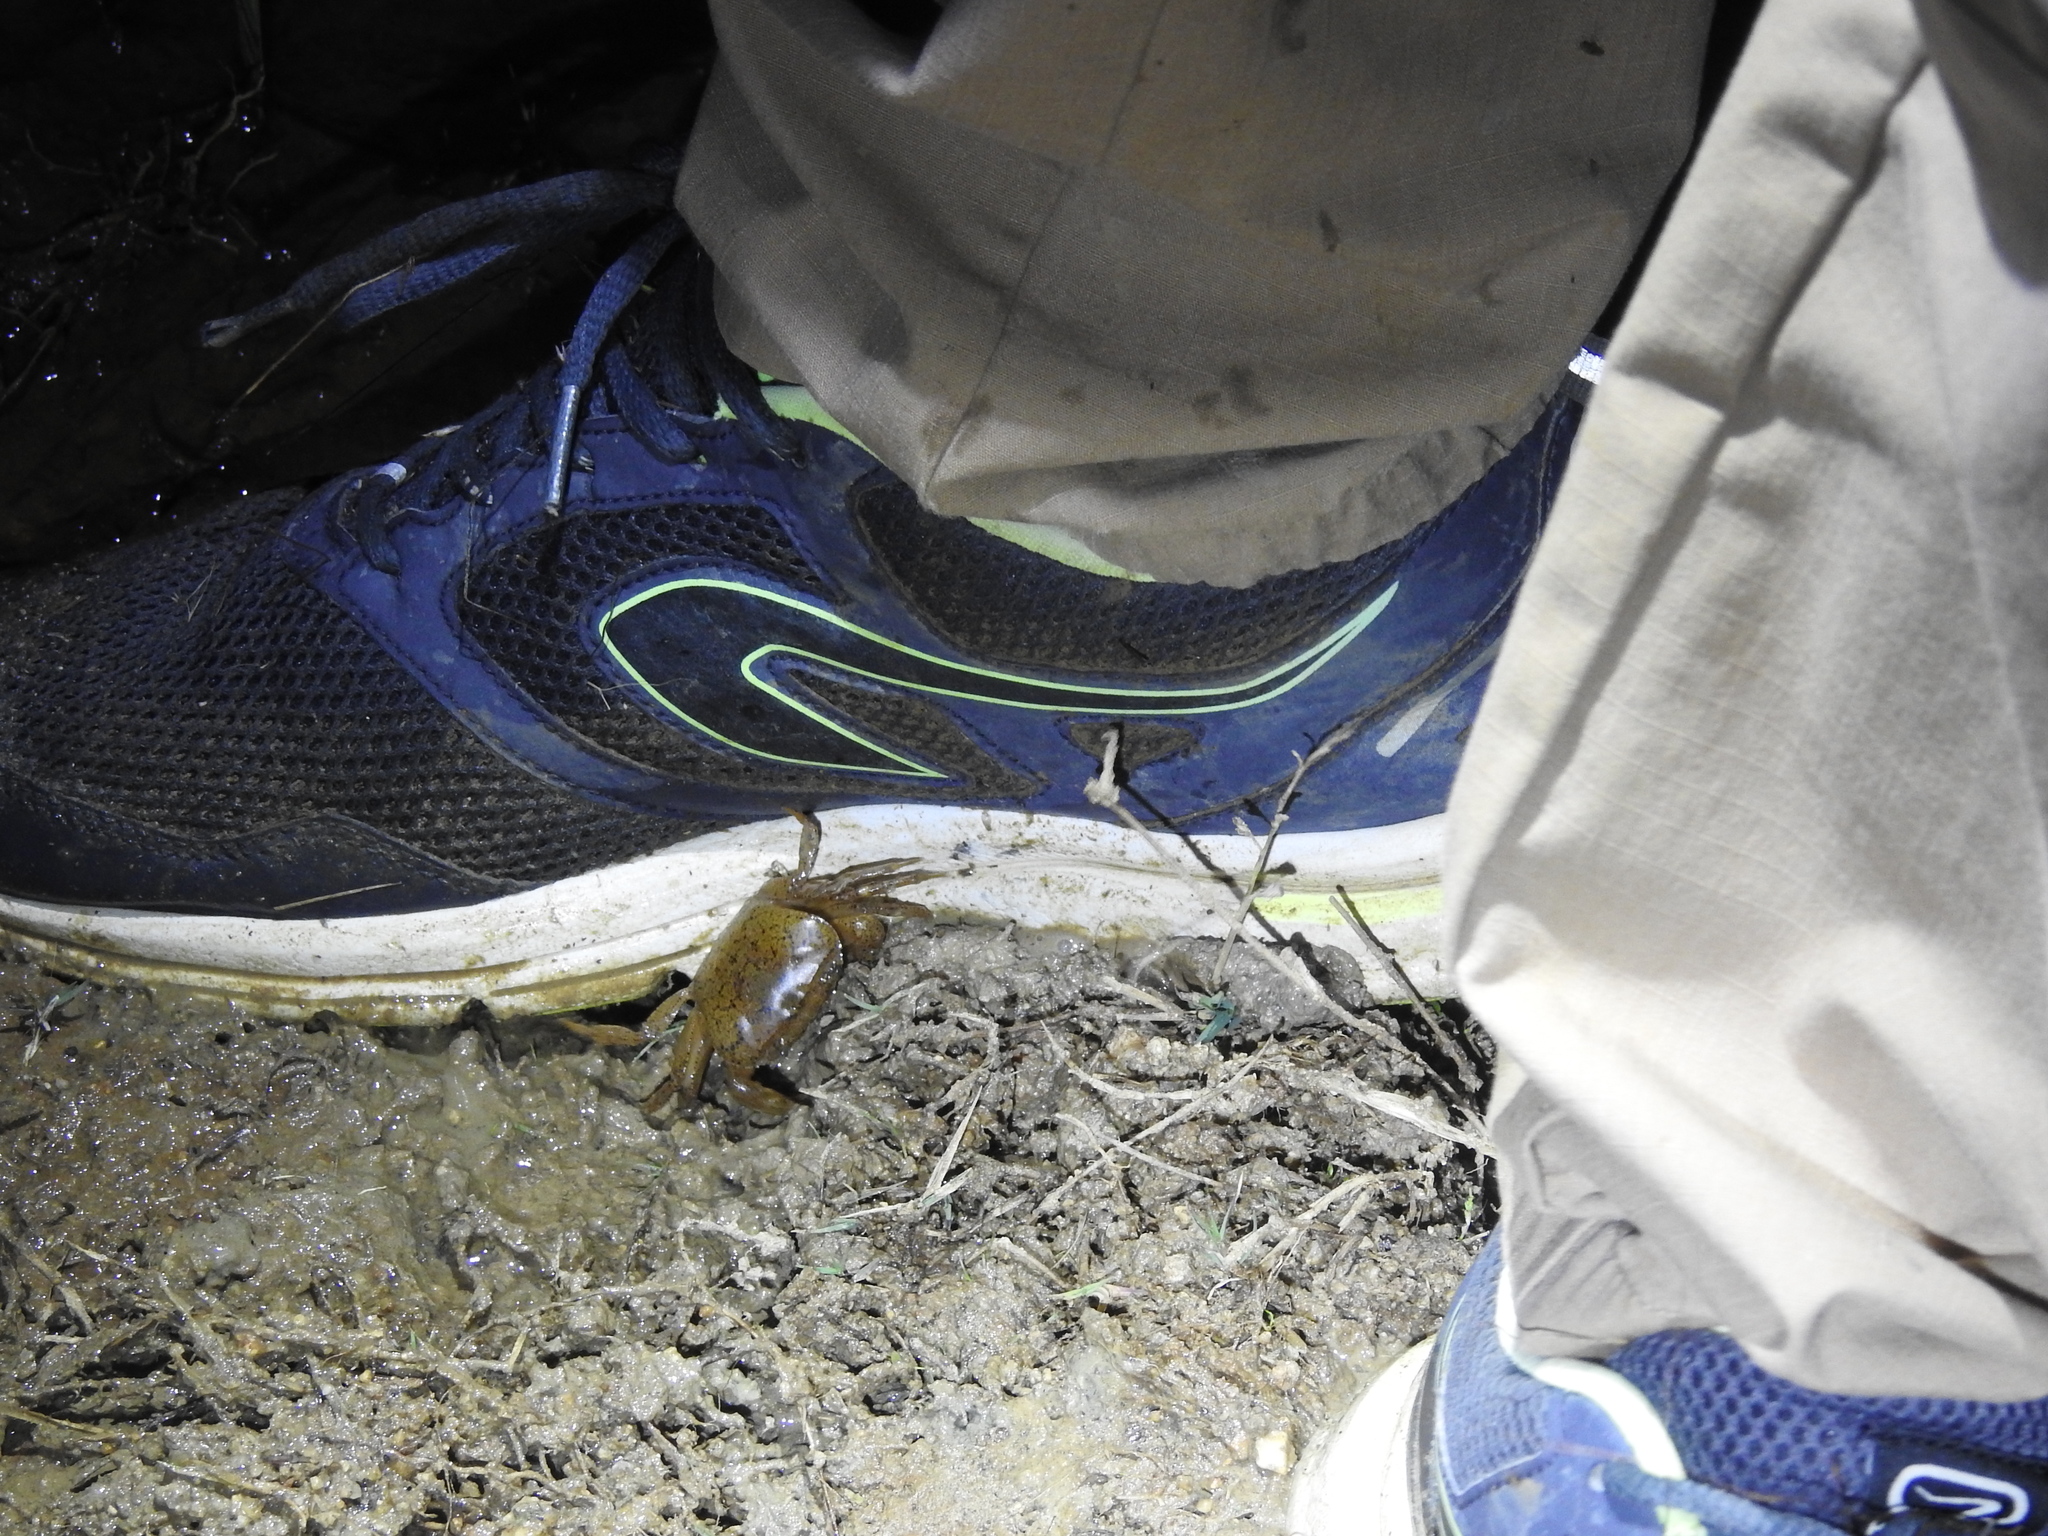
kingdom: Animalia
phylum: Arthropoda
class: Malacostraca
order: Decapoda
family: Gecarcinucidae
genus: Oziotelphusa
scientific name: Oziotelphusa wagrakarowensis
